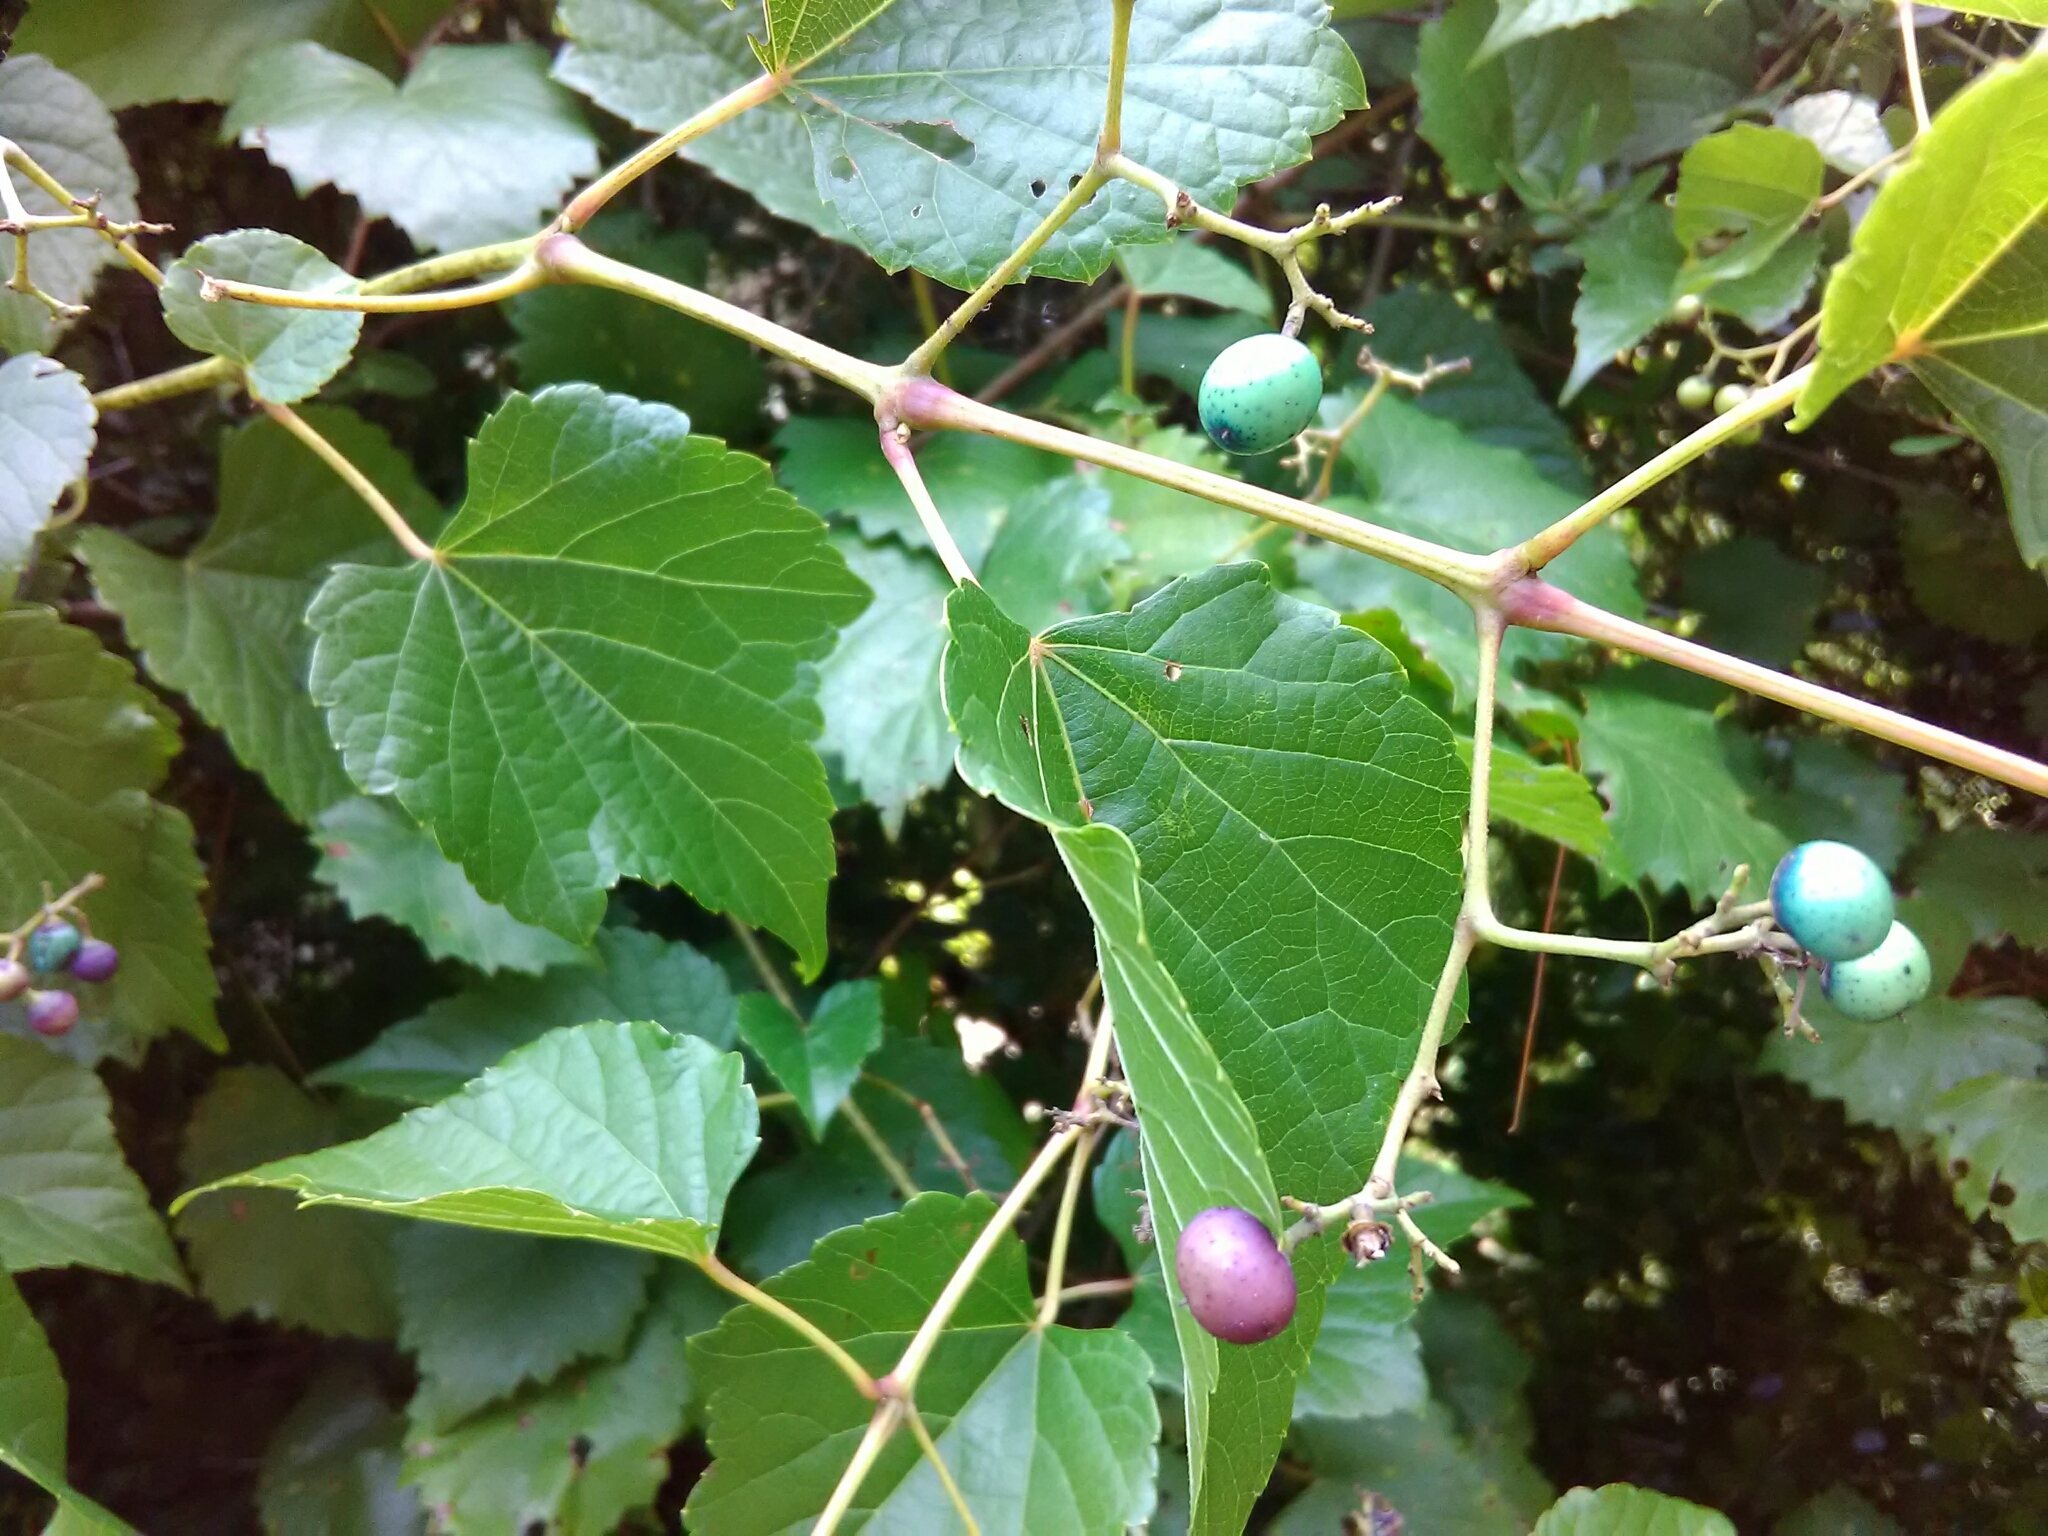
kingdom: Plantae
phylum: Tracheophyta
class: Magnoliopsida
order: Vitales
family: Vitaceae
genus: Ampelopsis
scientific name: Ampelopsis glandulosa
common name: Amur peppervine
